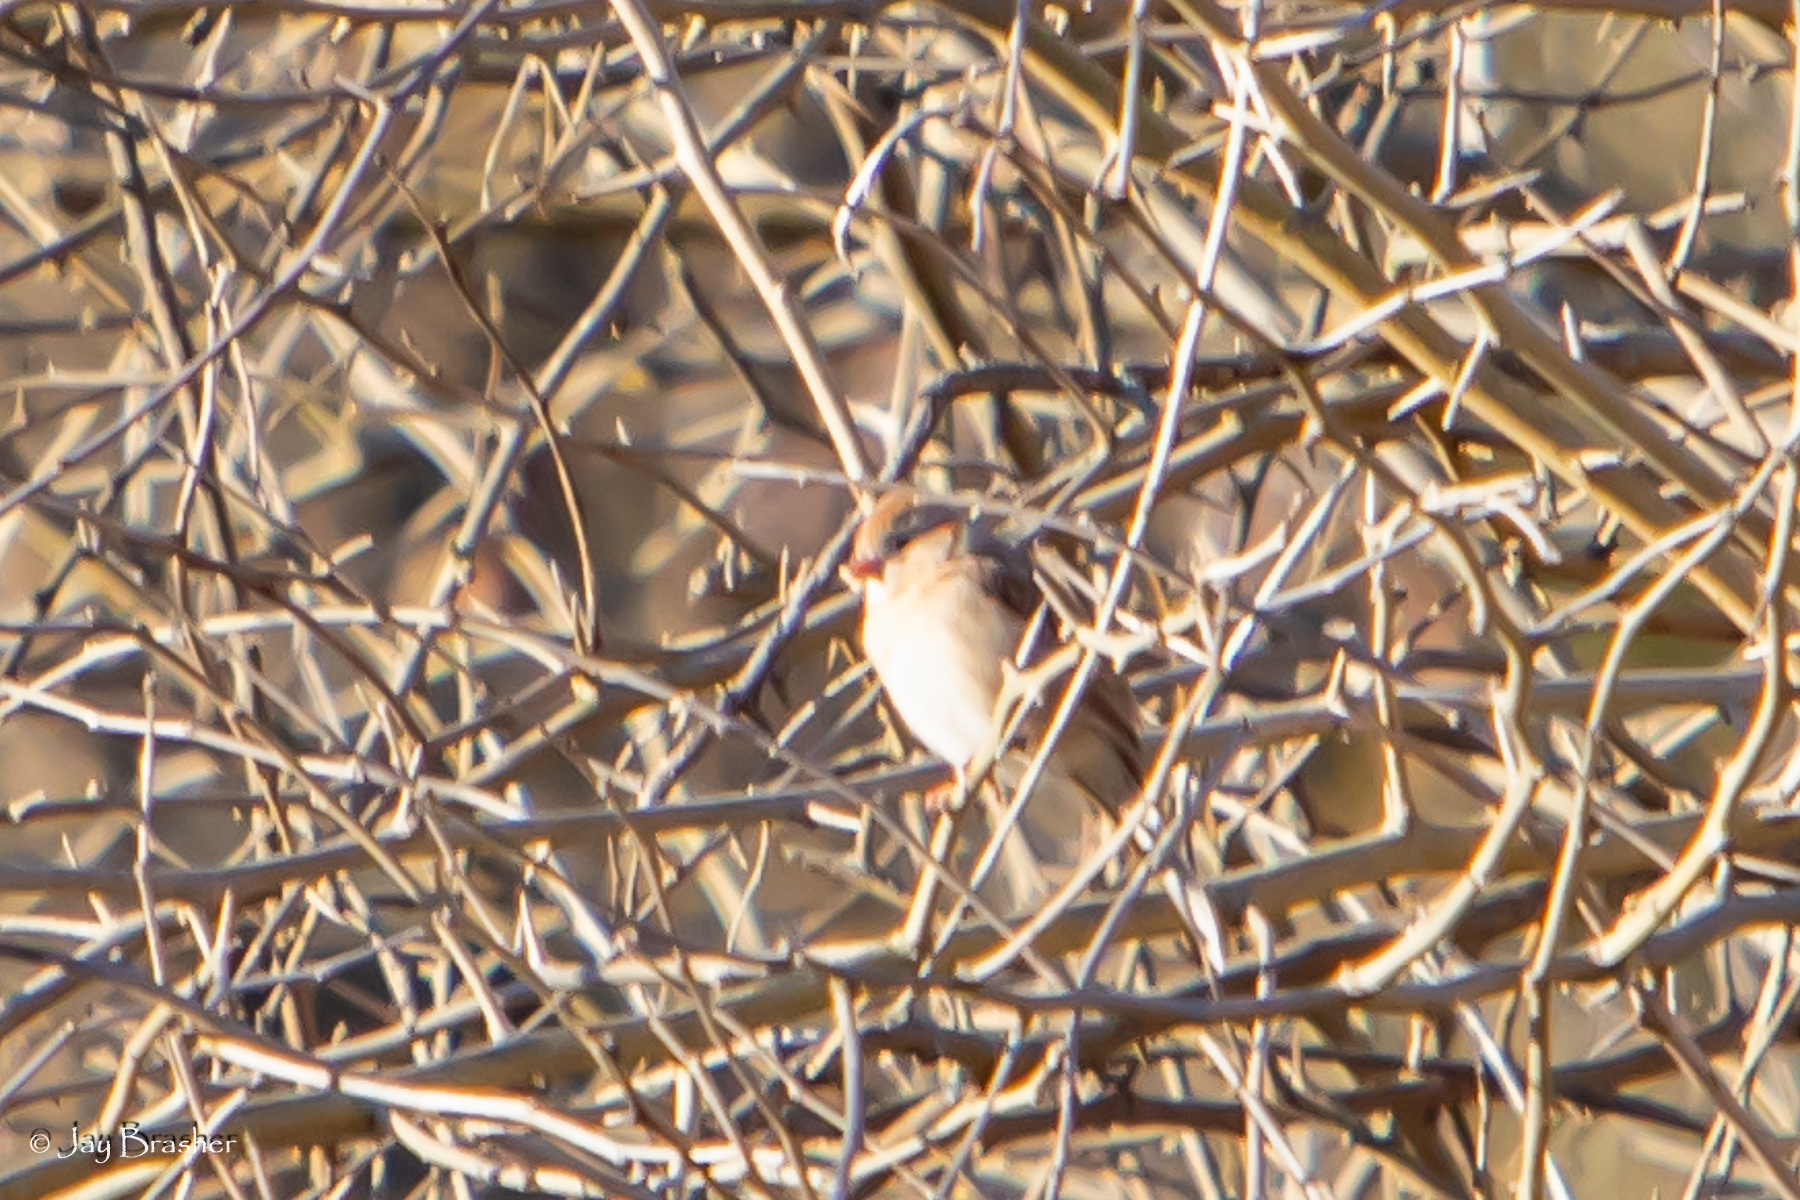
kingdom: Animalia
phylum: Chordata
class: Aves
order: Passeriformes
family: Passerellidae
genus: Spizella
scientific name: Spizella pusilla
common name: Field sparrow
